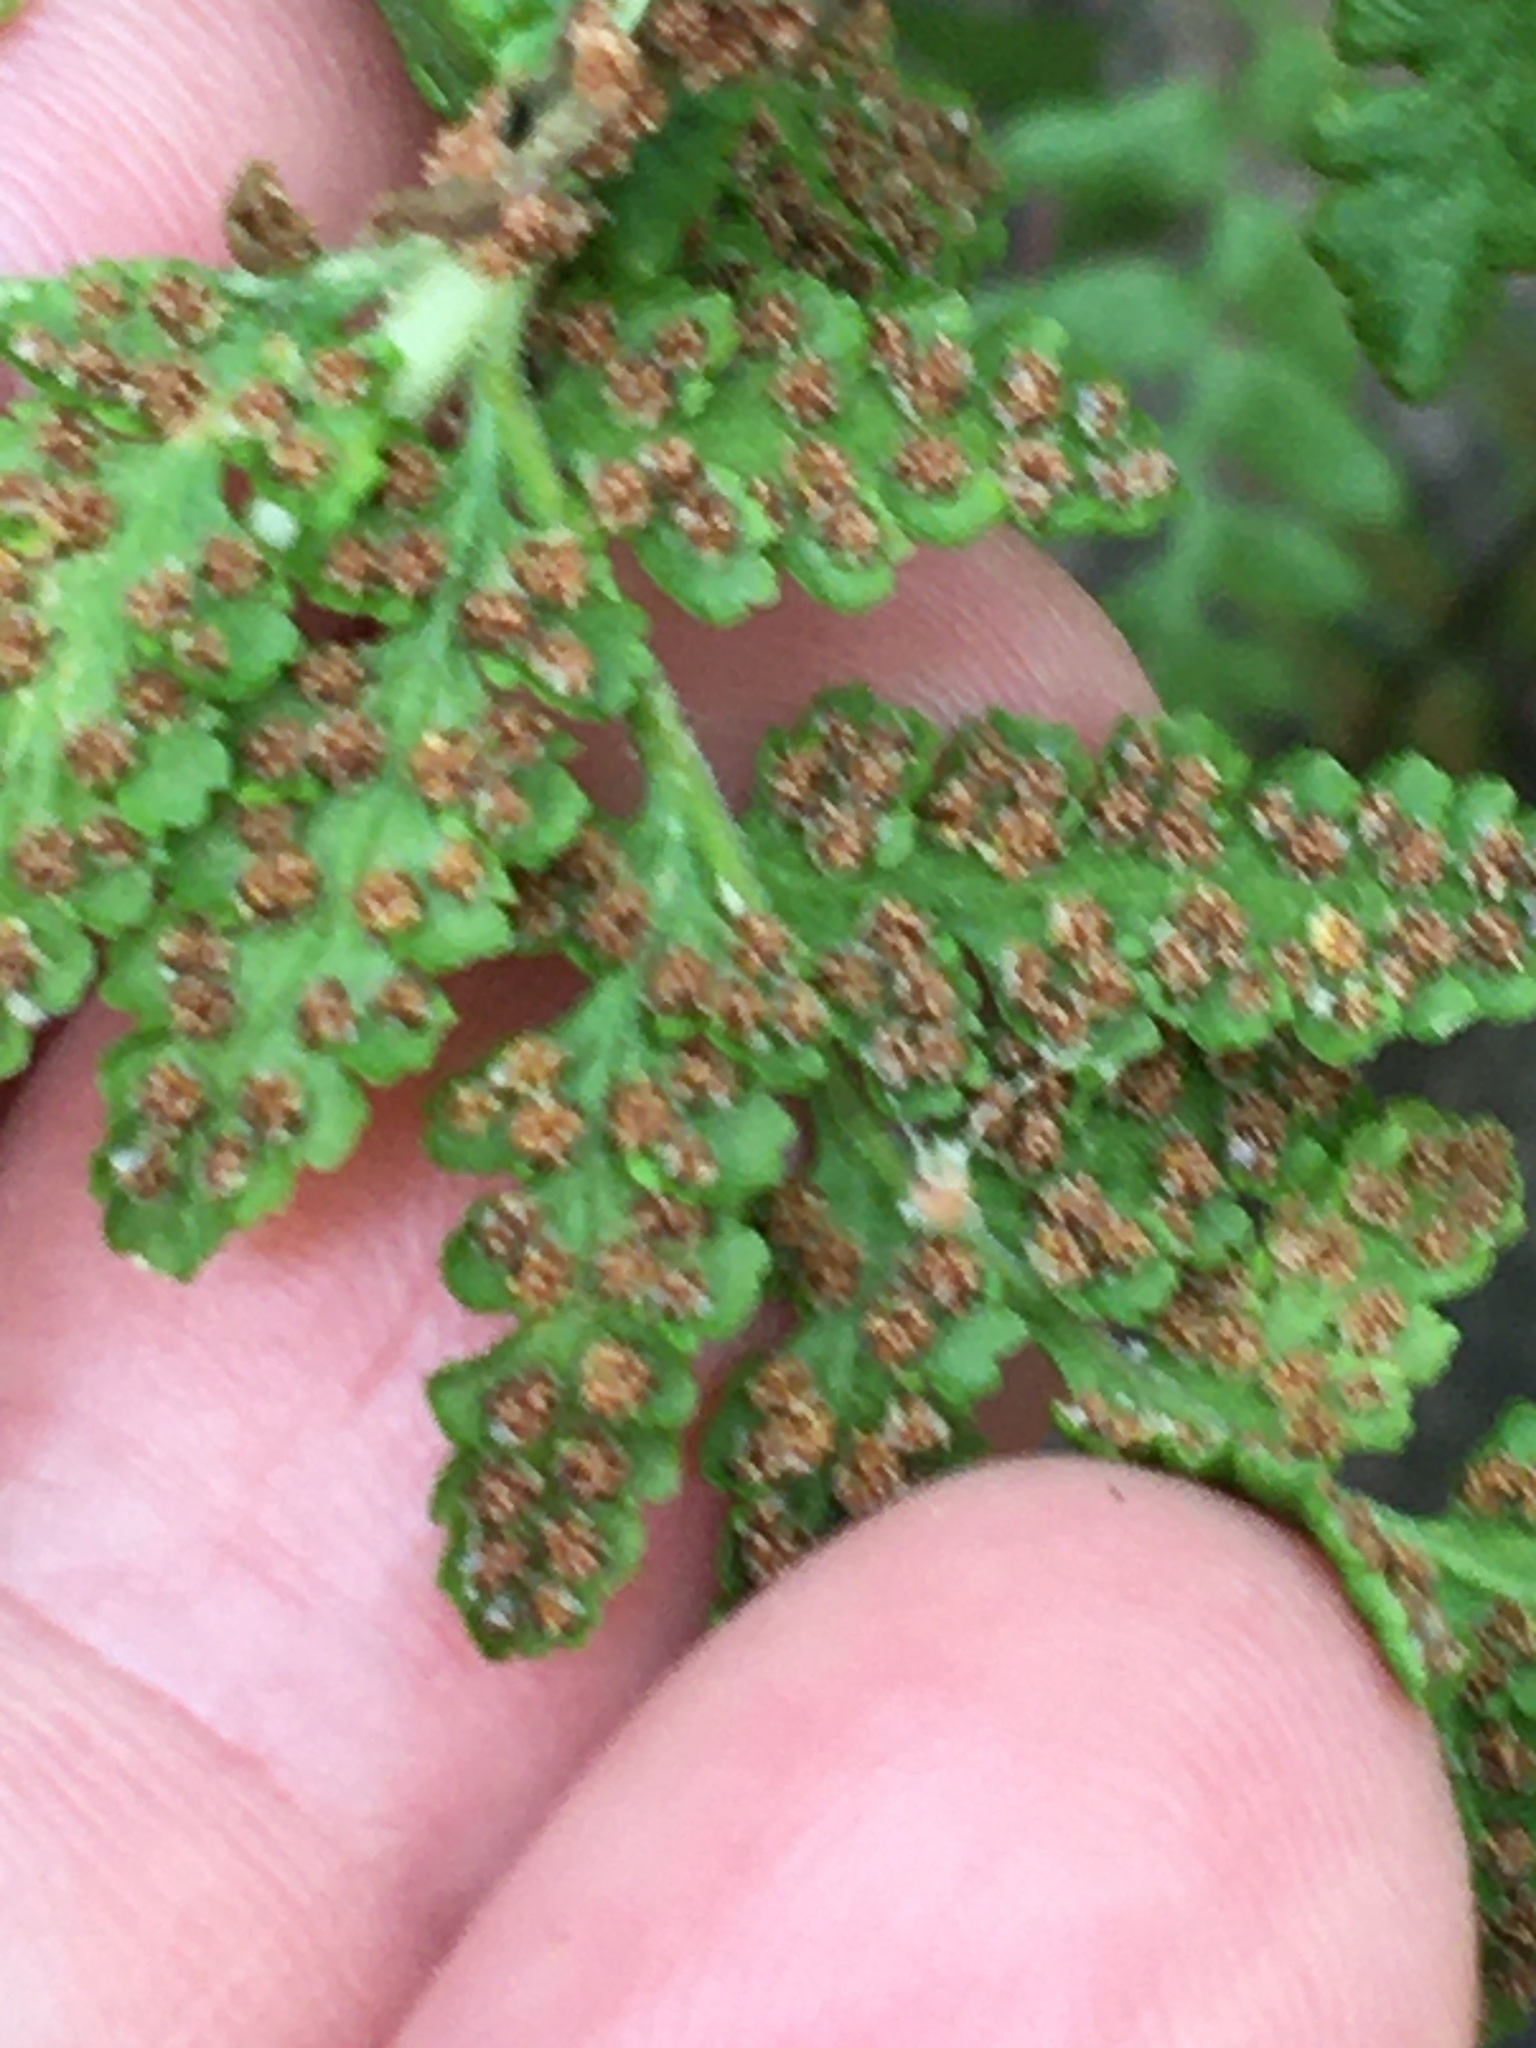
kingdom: Plantae
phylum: Tracheophyta
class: Polypodiopsida
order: Polypodiales
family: Woodsiaceae
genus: Physematium
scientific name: Physematium obtusum
